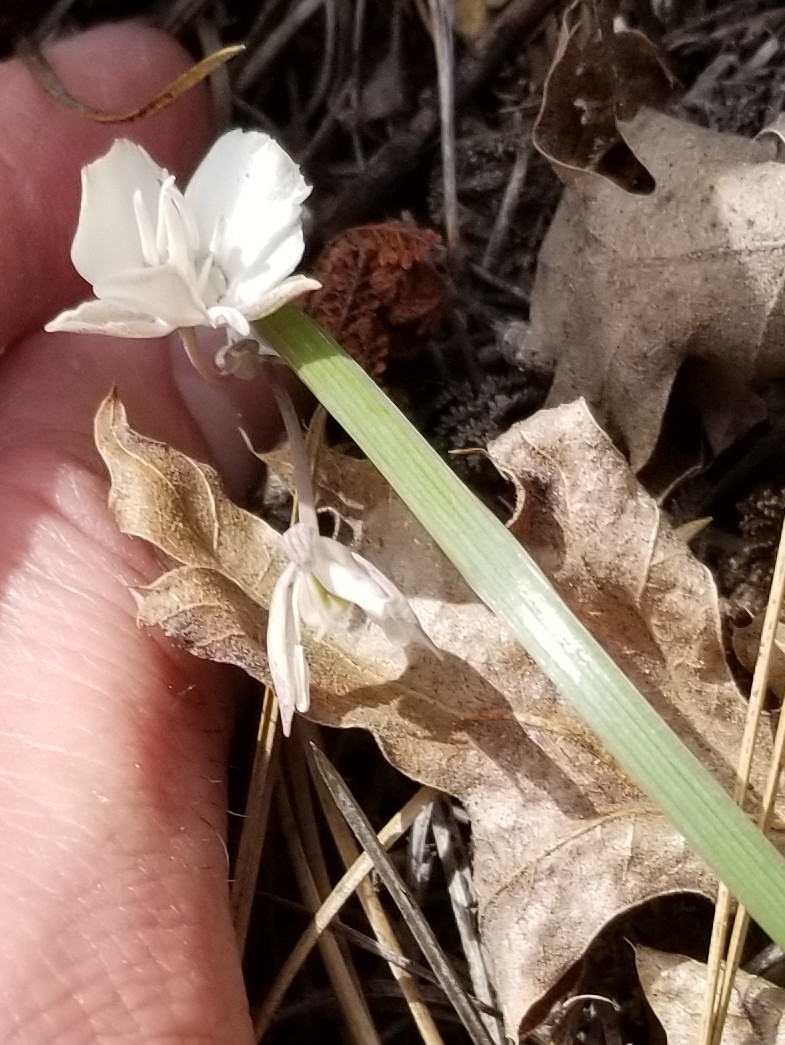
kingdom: Plantae
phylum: Tracheophyta
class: Liliopsida
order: Liliales
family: Liliaceae
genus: Calochortus
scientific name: Calochortus minimus
